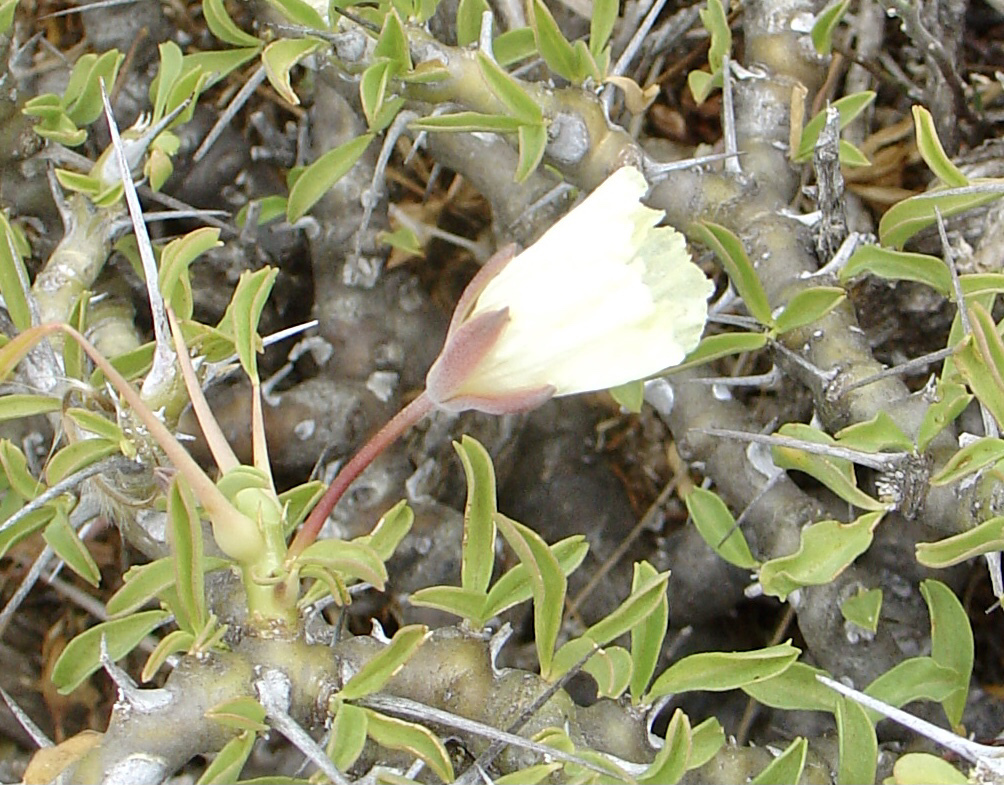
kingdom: Plantae
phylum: Tracheophyta
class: Magnoliopsida
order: Geraniales
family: Geraniaceae
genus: Monsonia
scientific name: Monsonia camdeboensis
